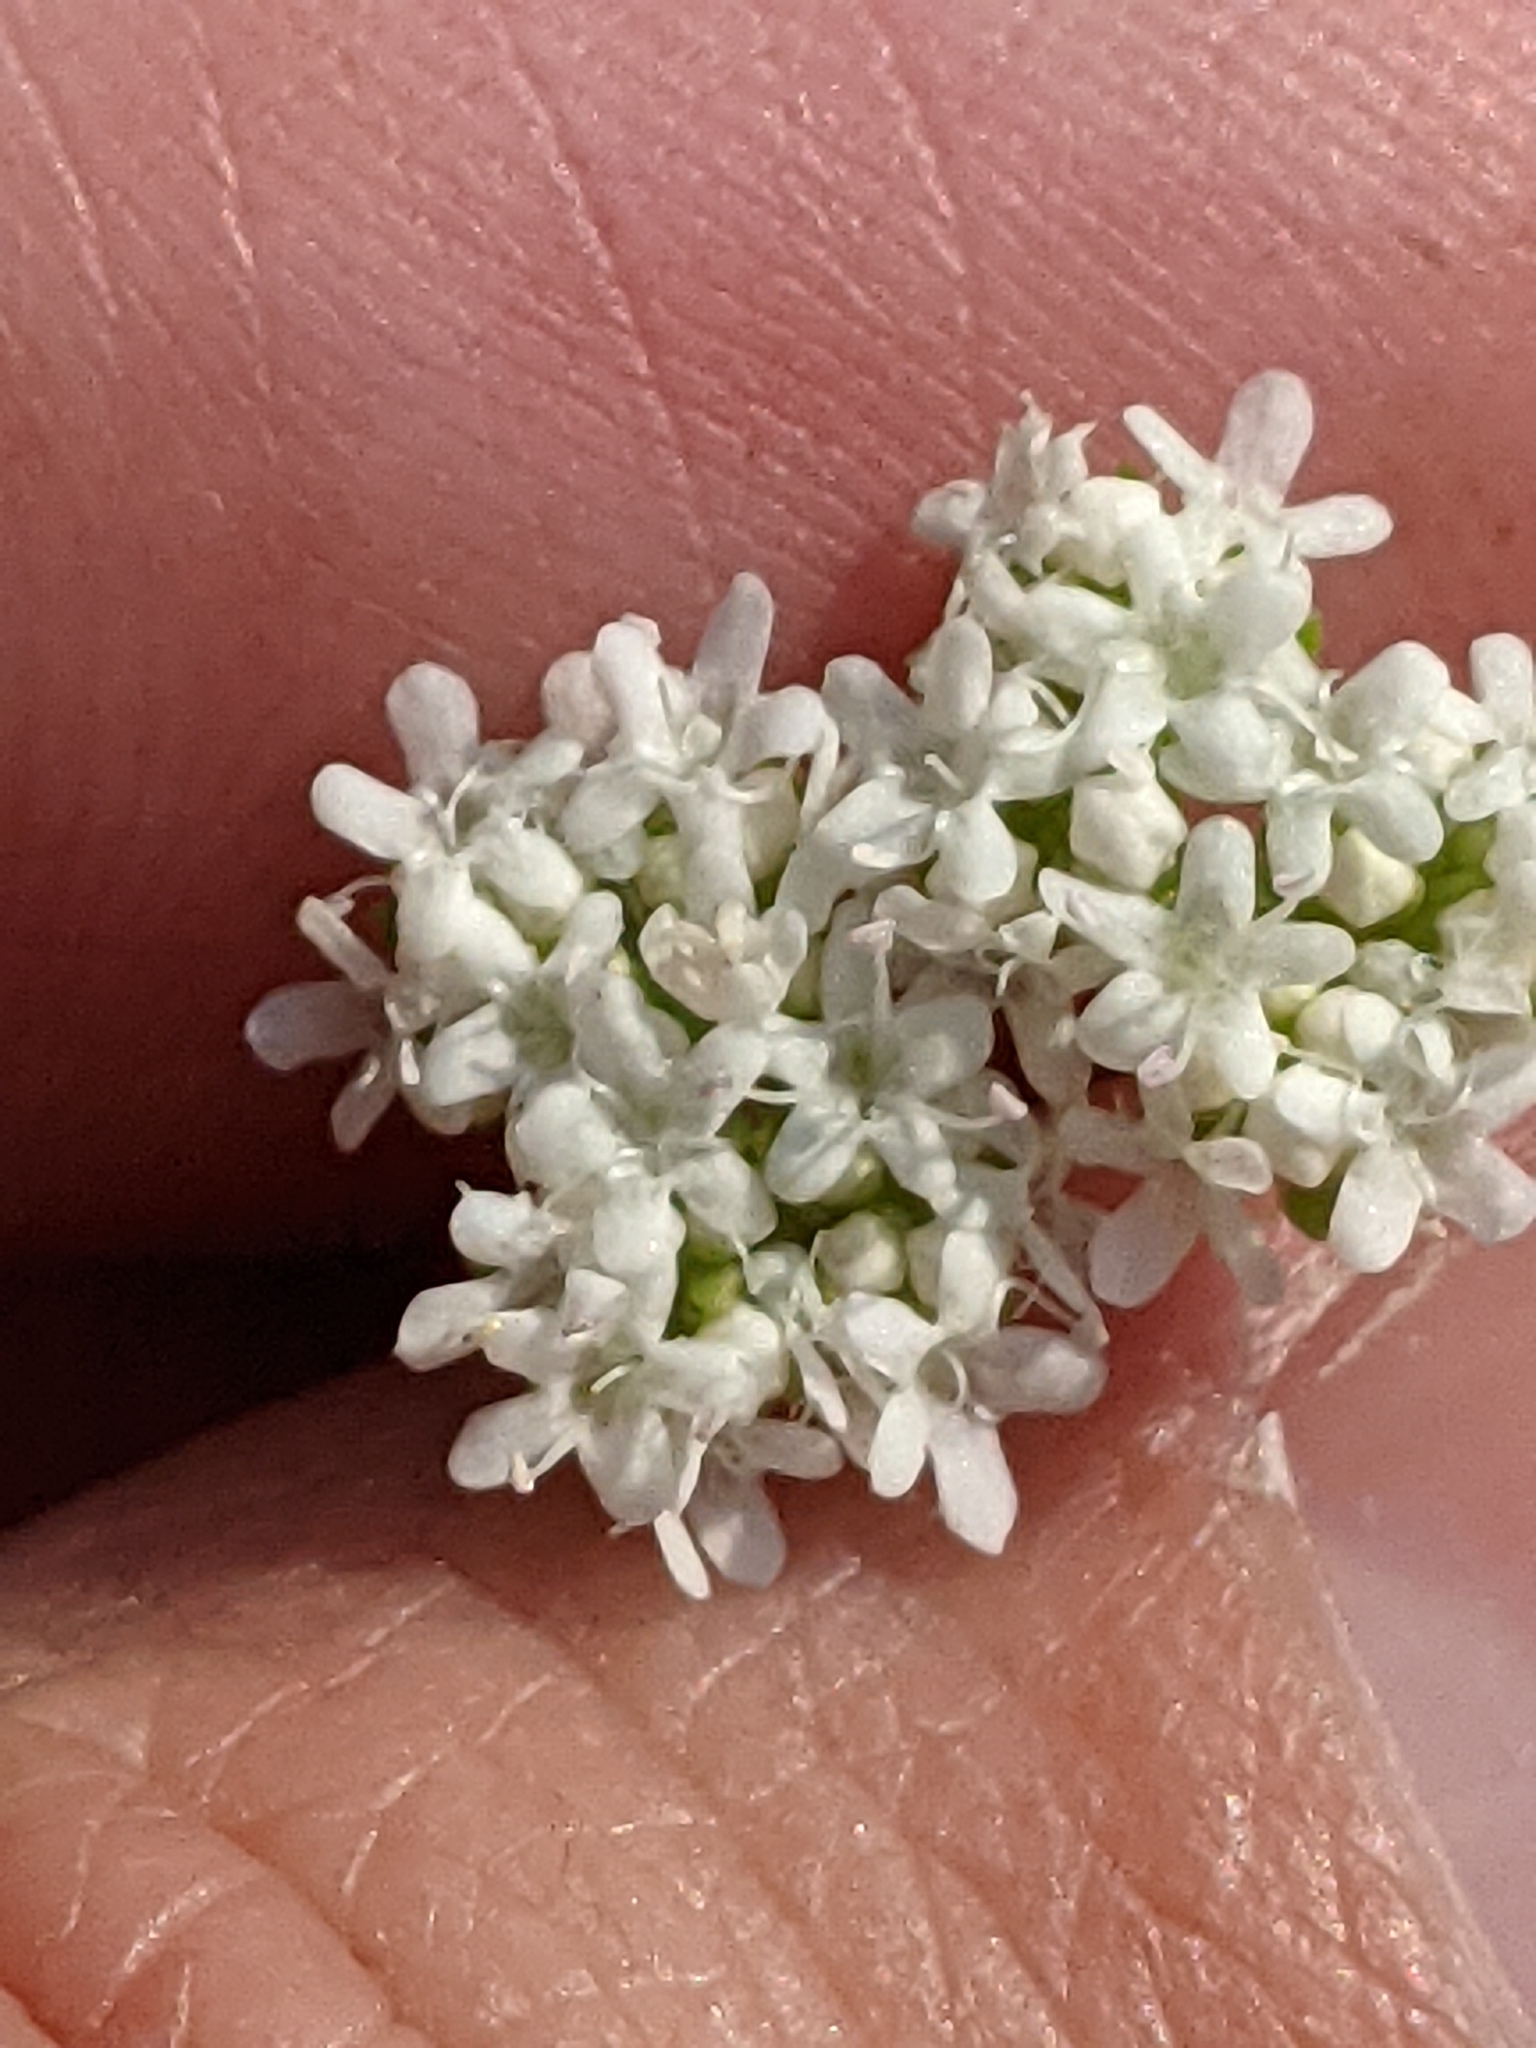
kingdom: Plantae
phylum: Tracheophyta
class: Magnoliopsida
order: Dipsacales
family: Caprifoliaceae
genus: Valerianella
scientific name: Valerianella amarella
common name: Hariy cornsalad
